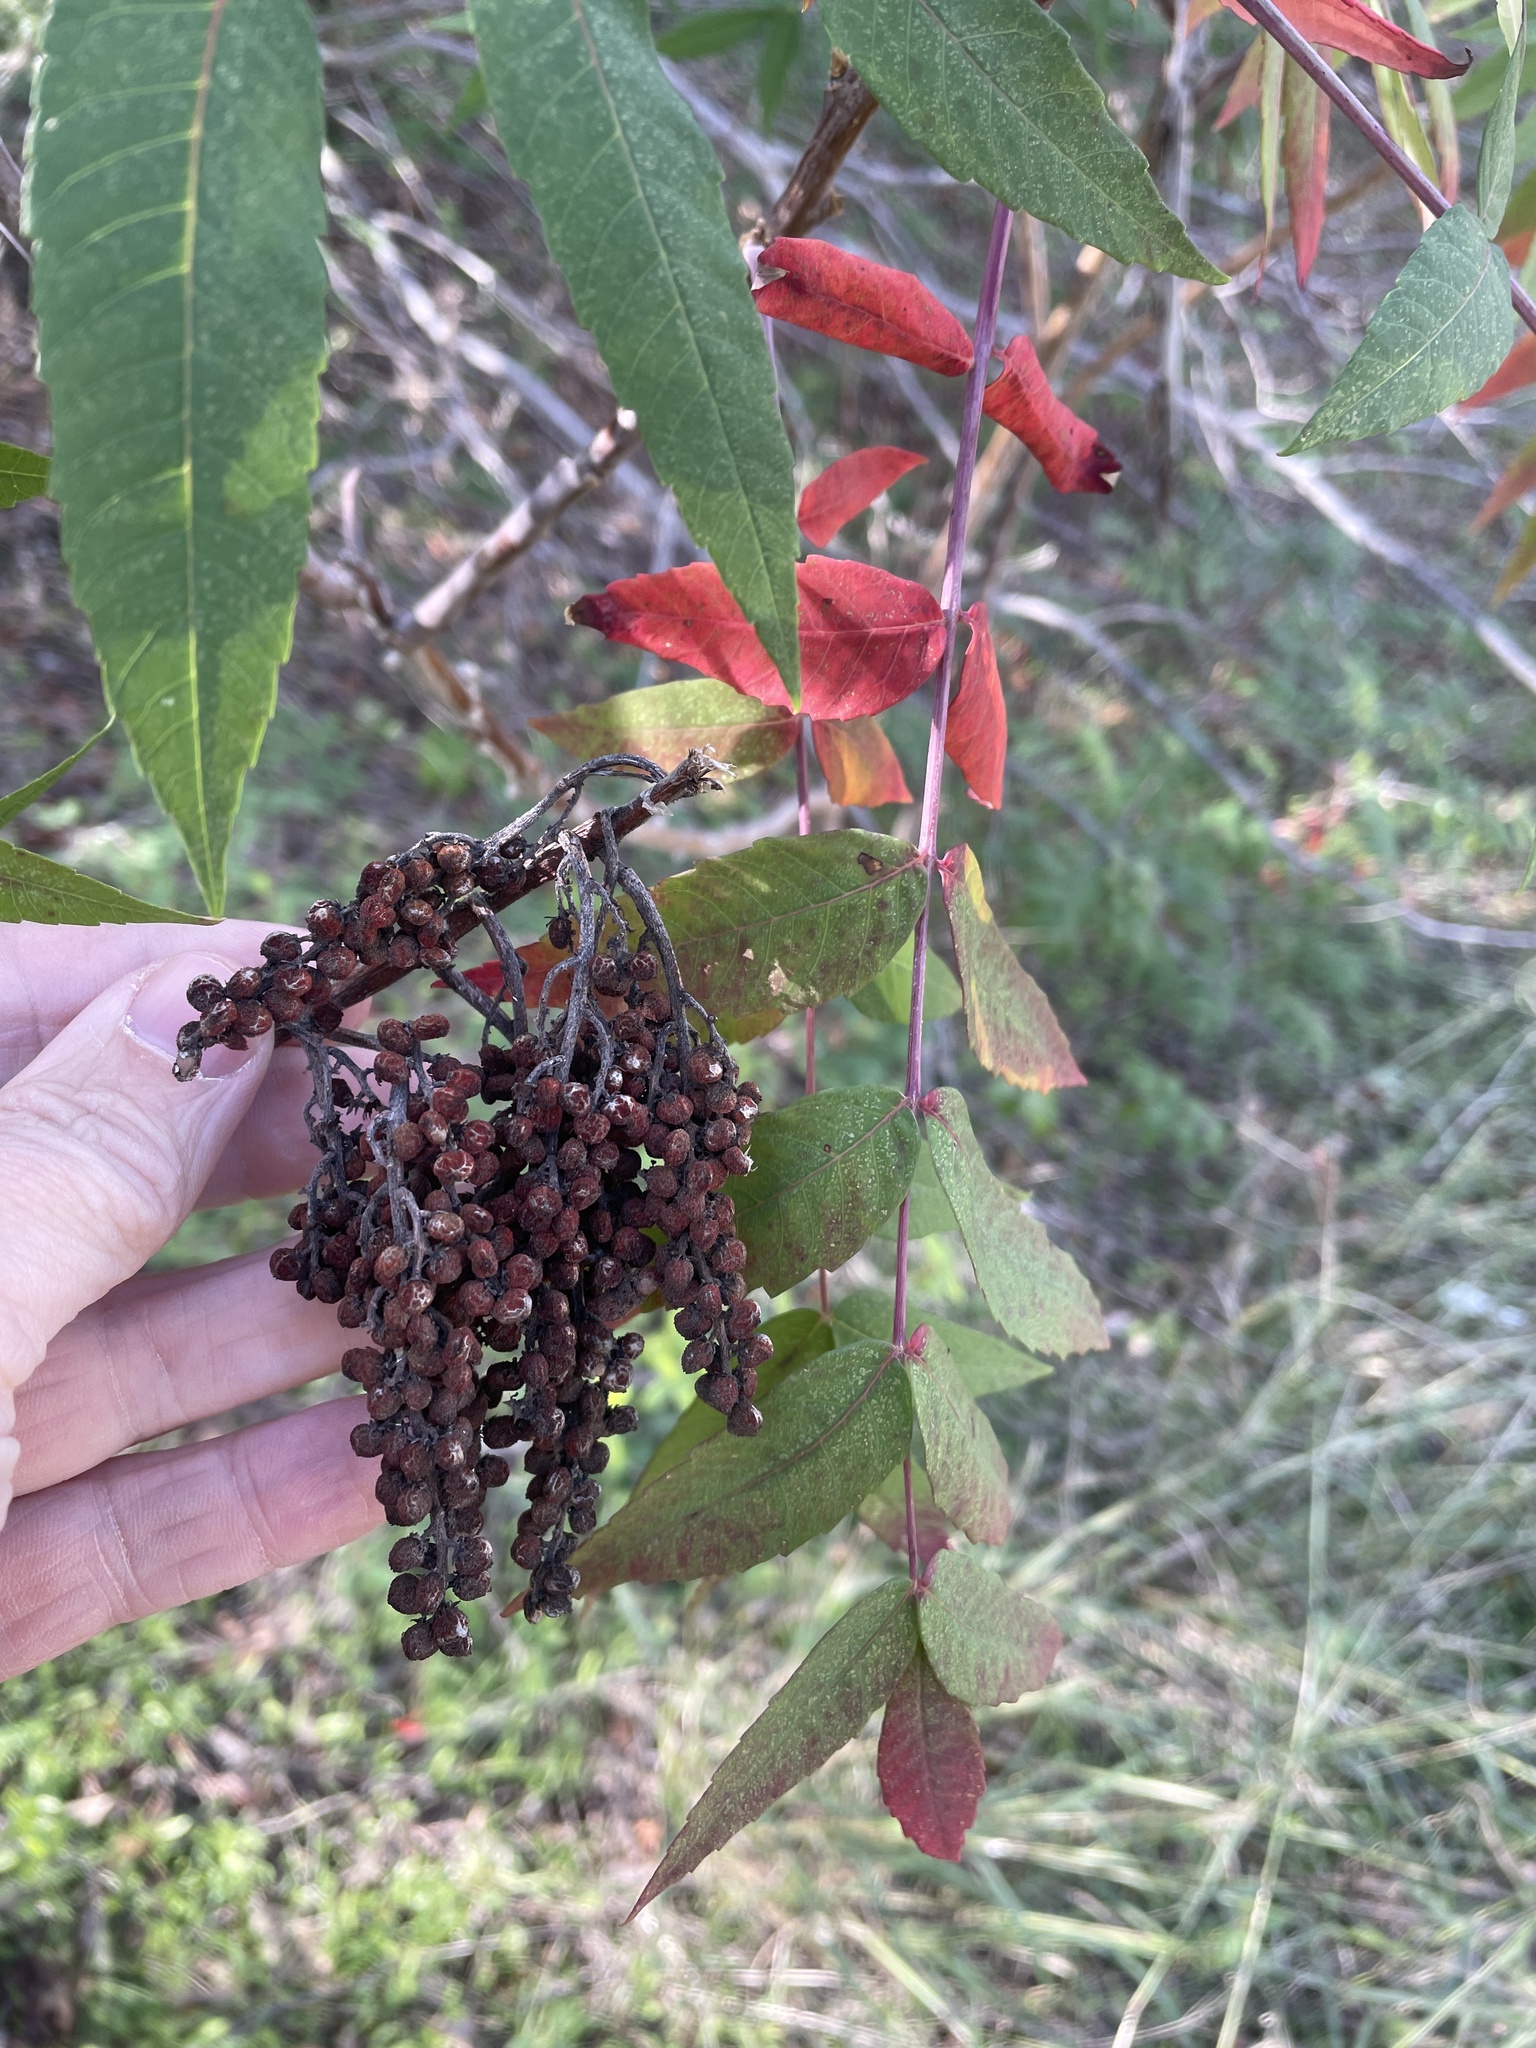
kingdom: Plantae
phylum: Tracheophyta
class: Magnoliopsida
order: Sapindales
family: Anacardiaceae
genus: Rhus
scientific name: Rhus glabra
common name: Scarlet sumac
